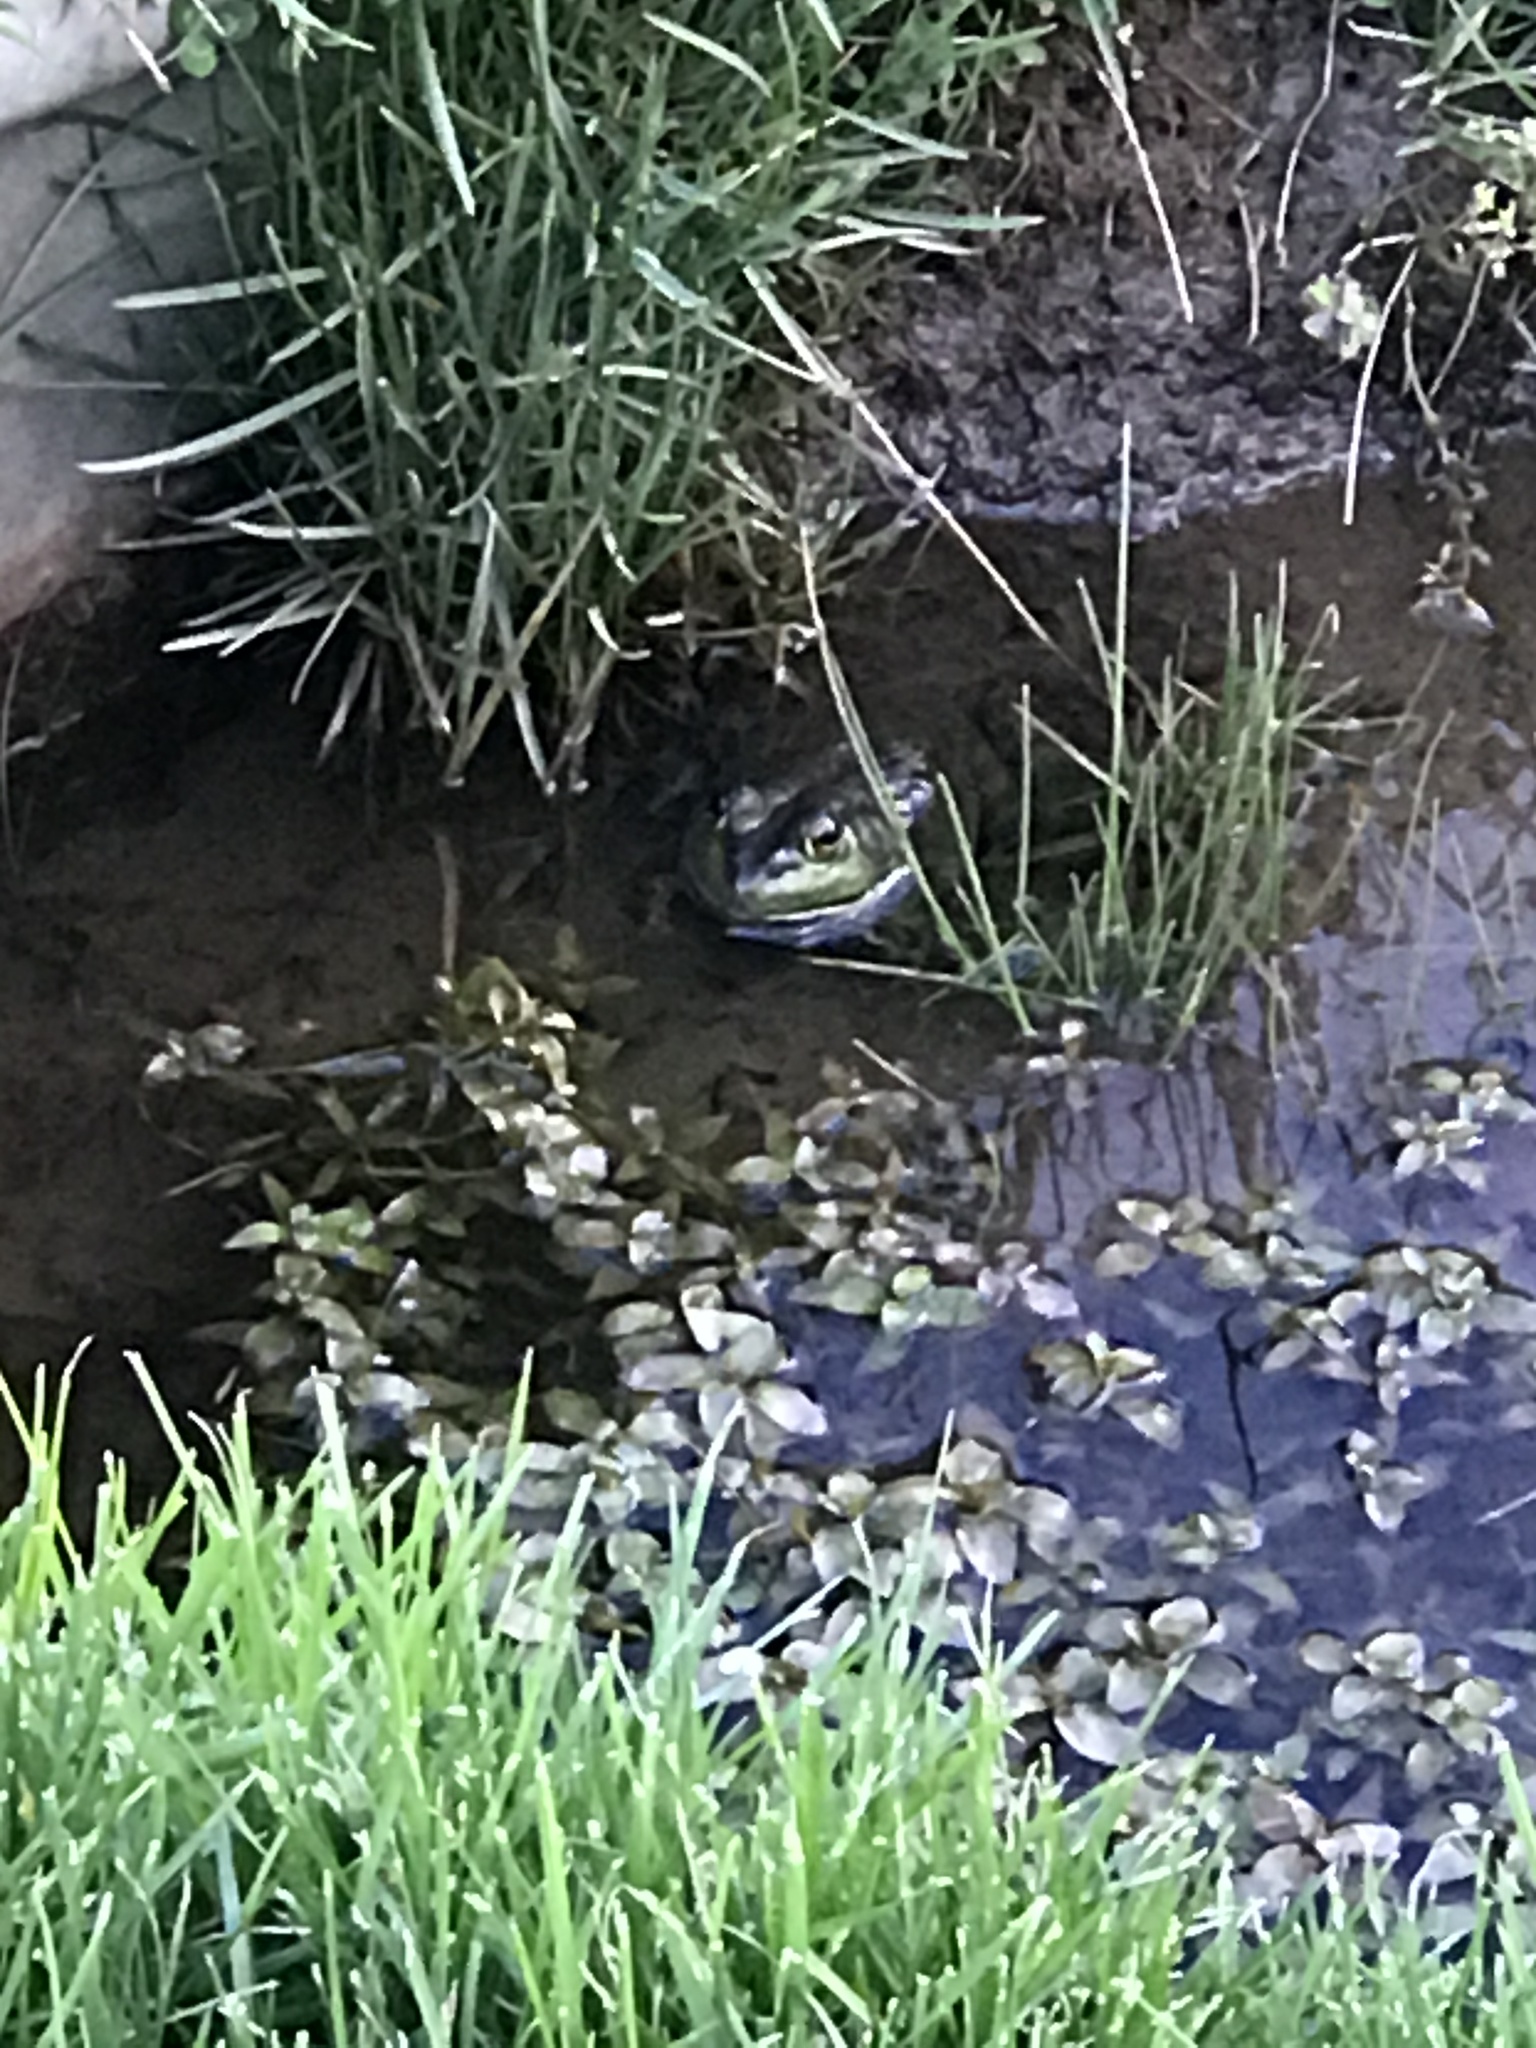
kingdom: Animalia
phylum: Chordata
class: Amphibia
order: Anura
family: Ranidae
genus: Lithobates
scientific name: Lithobates catesbeianus
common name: American bullfrog
